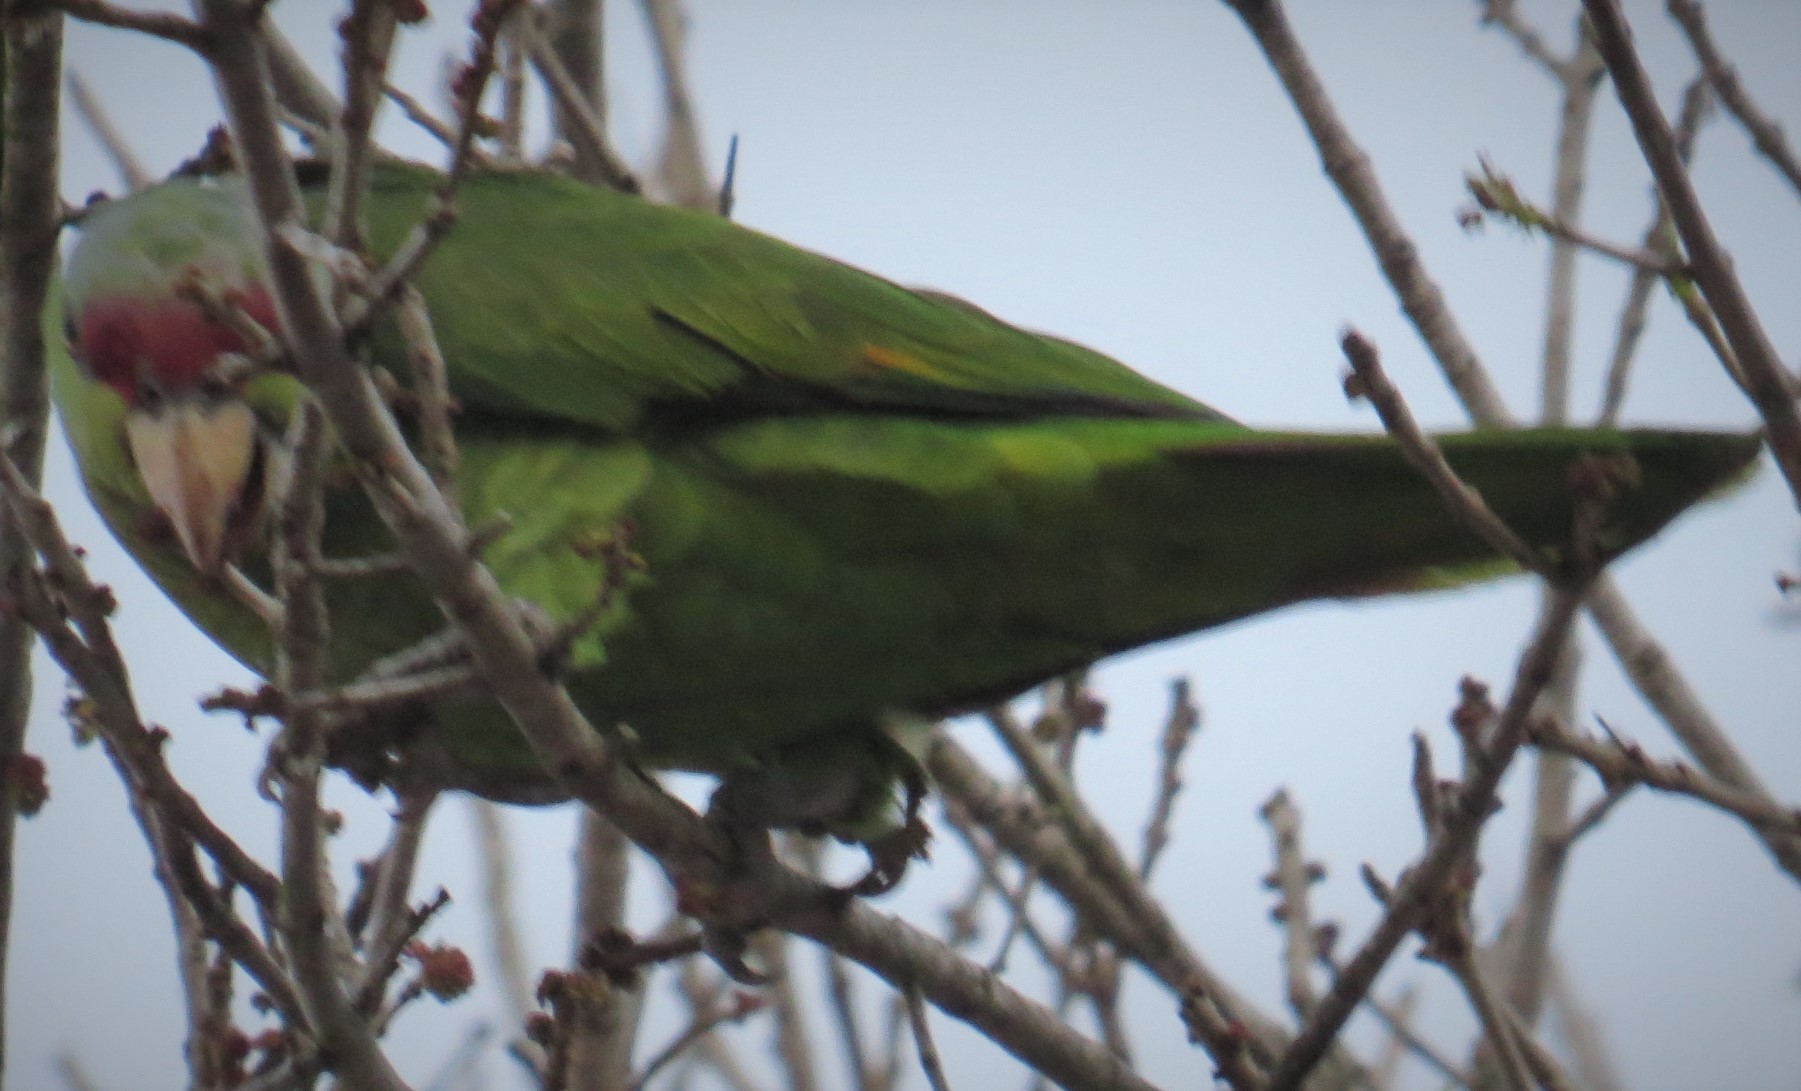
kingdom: Animalia
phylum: Chordata
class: Aves
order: Psittaciformes
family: Psittacidae
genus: Amazona
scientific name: Amazona finschi
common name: Lilac-crowned amazon
